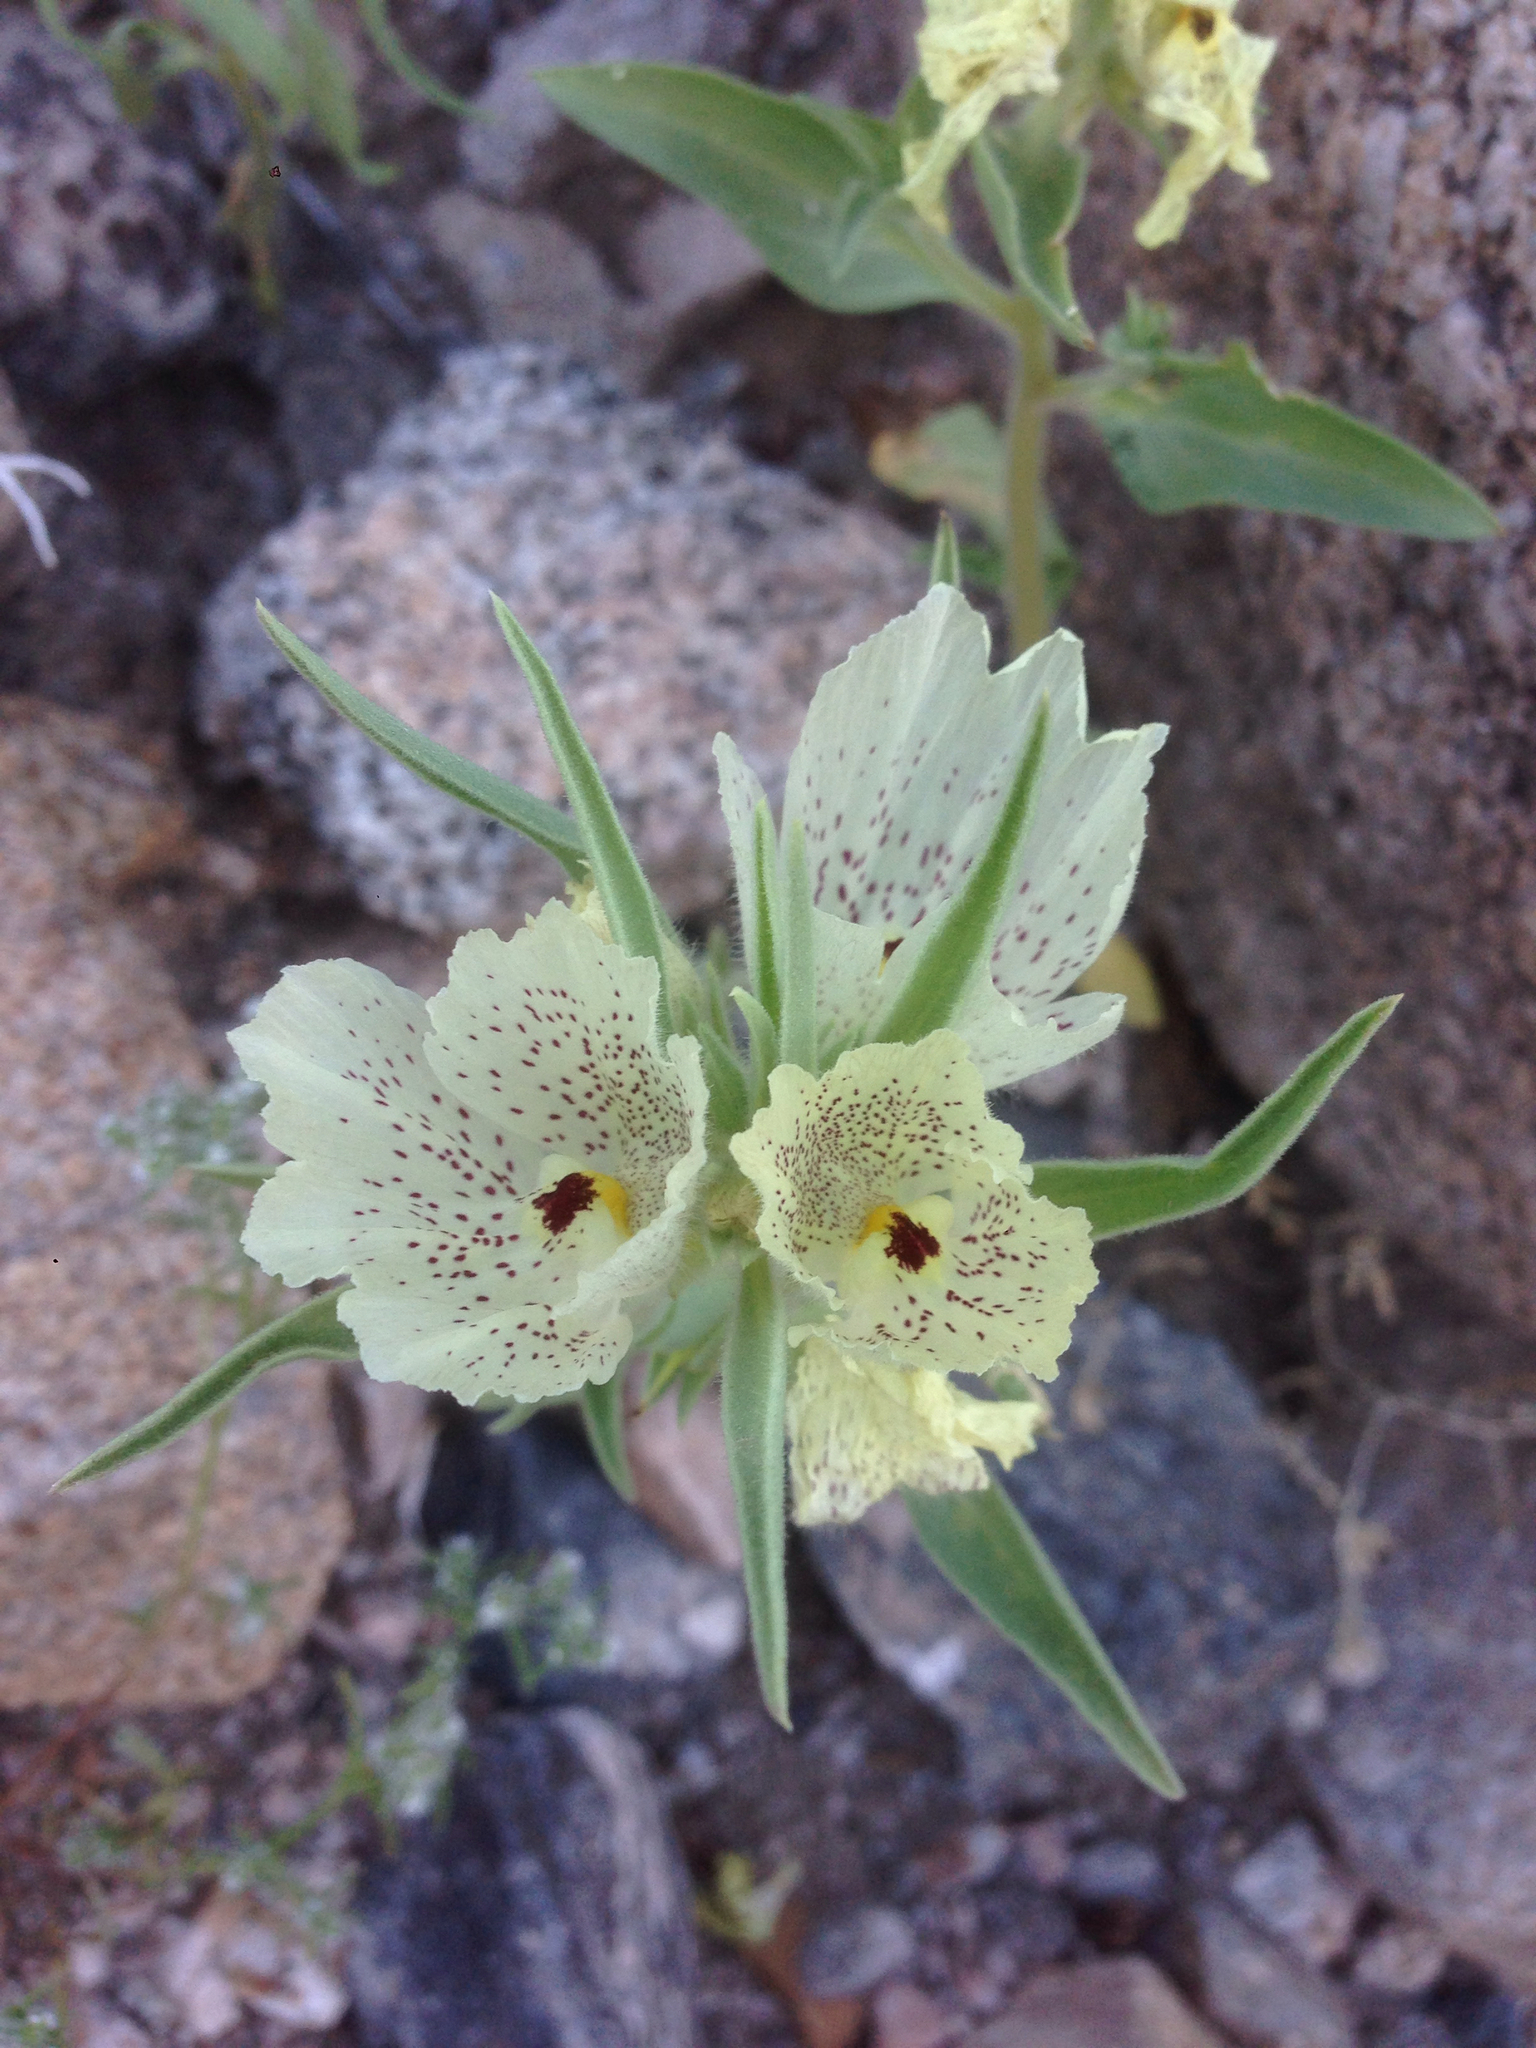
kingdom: Plantae
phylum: Tracheophyta
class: Magnoliopsida
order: Lamiales
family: Plantaginaceae
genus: Mohavea
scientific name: Mohavea confertiflora
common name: Ghost flower
